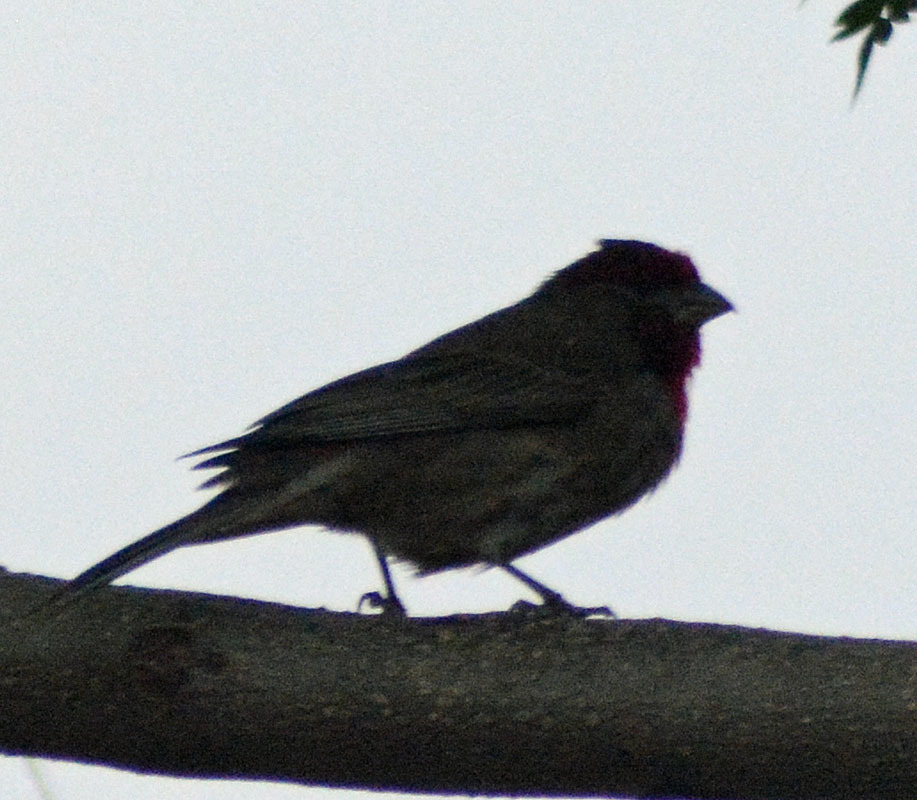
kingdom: Animalia
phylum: Chordata
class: Aves
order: Passeriformes
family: Fringillidae
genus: Haemorhous
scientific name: Haemorhous mexicanus
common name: House finch
